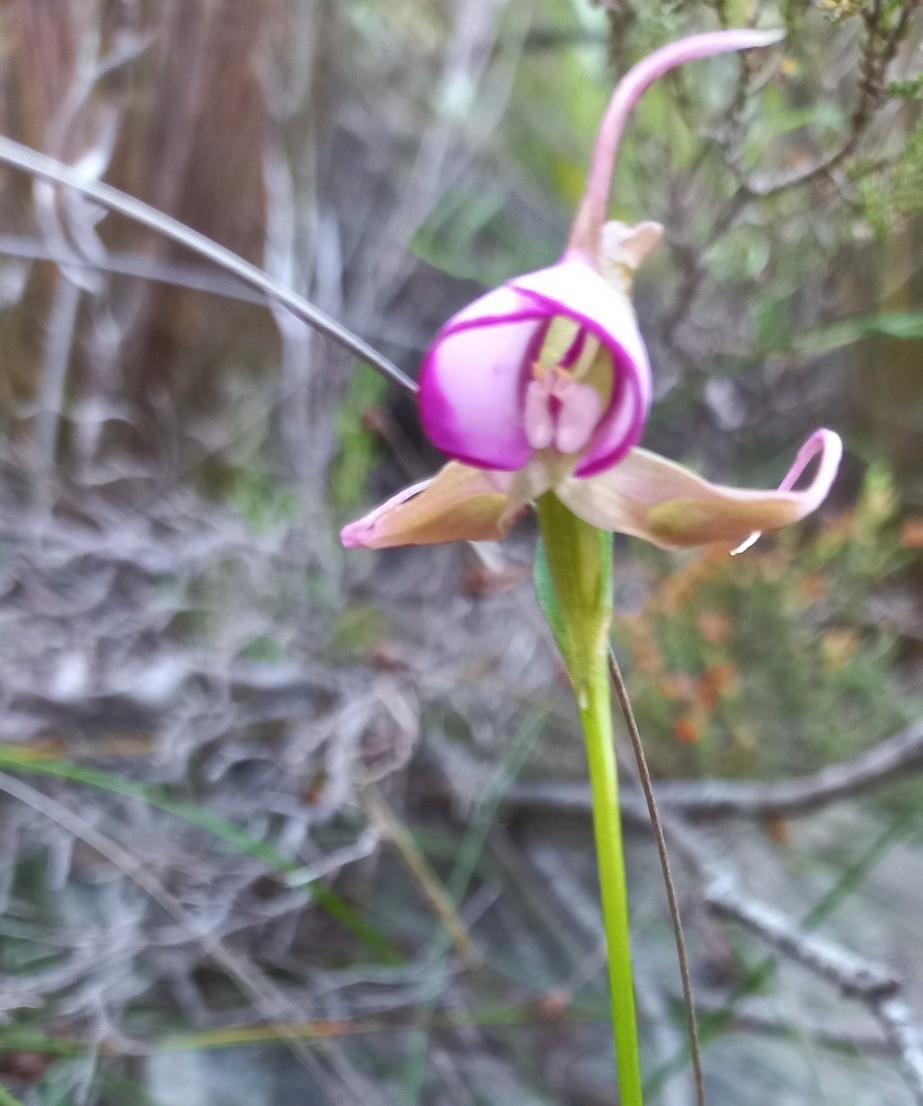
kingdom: Plantae
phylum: Tracheophyta
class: Liliopsida
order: Asparagales
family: Orchidaceae
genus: Disperis
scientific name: Disperis capensis
